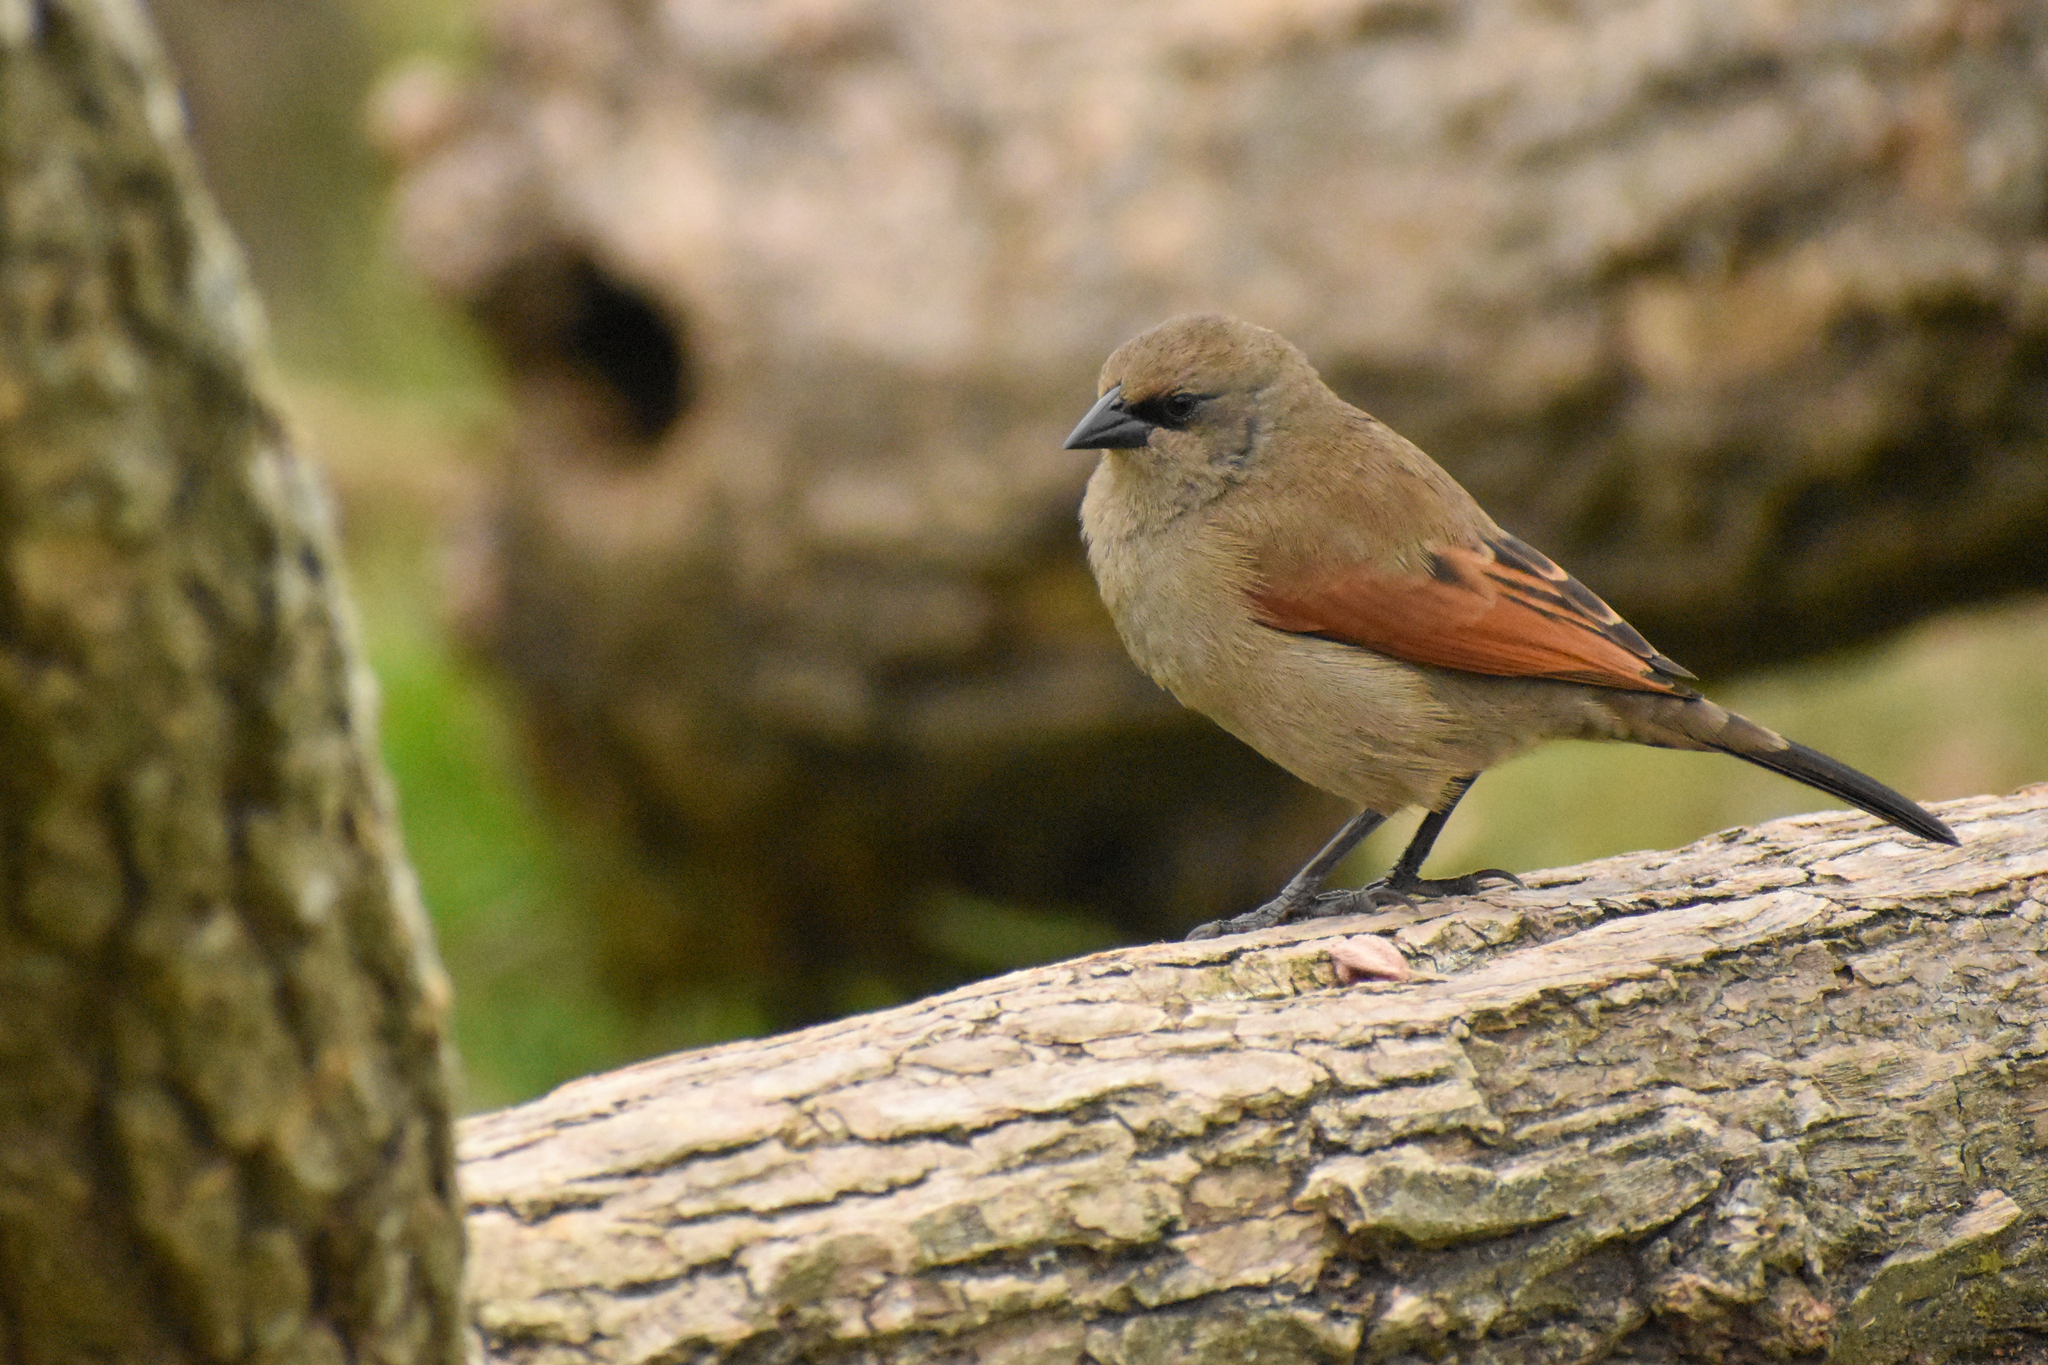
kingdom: Animalia
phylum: Chordata
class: Aves
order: Passeriformes
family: Icteridae
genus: Agelaioides
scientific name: Agelaioides badius
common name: Baywing
